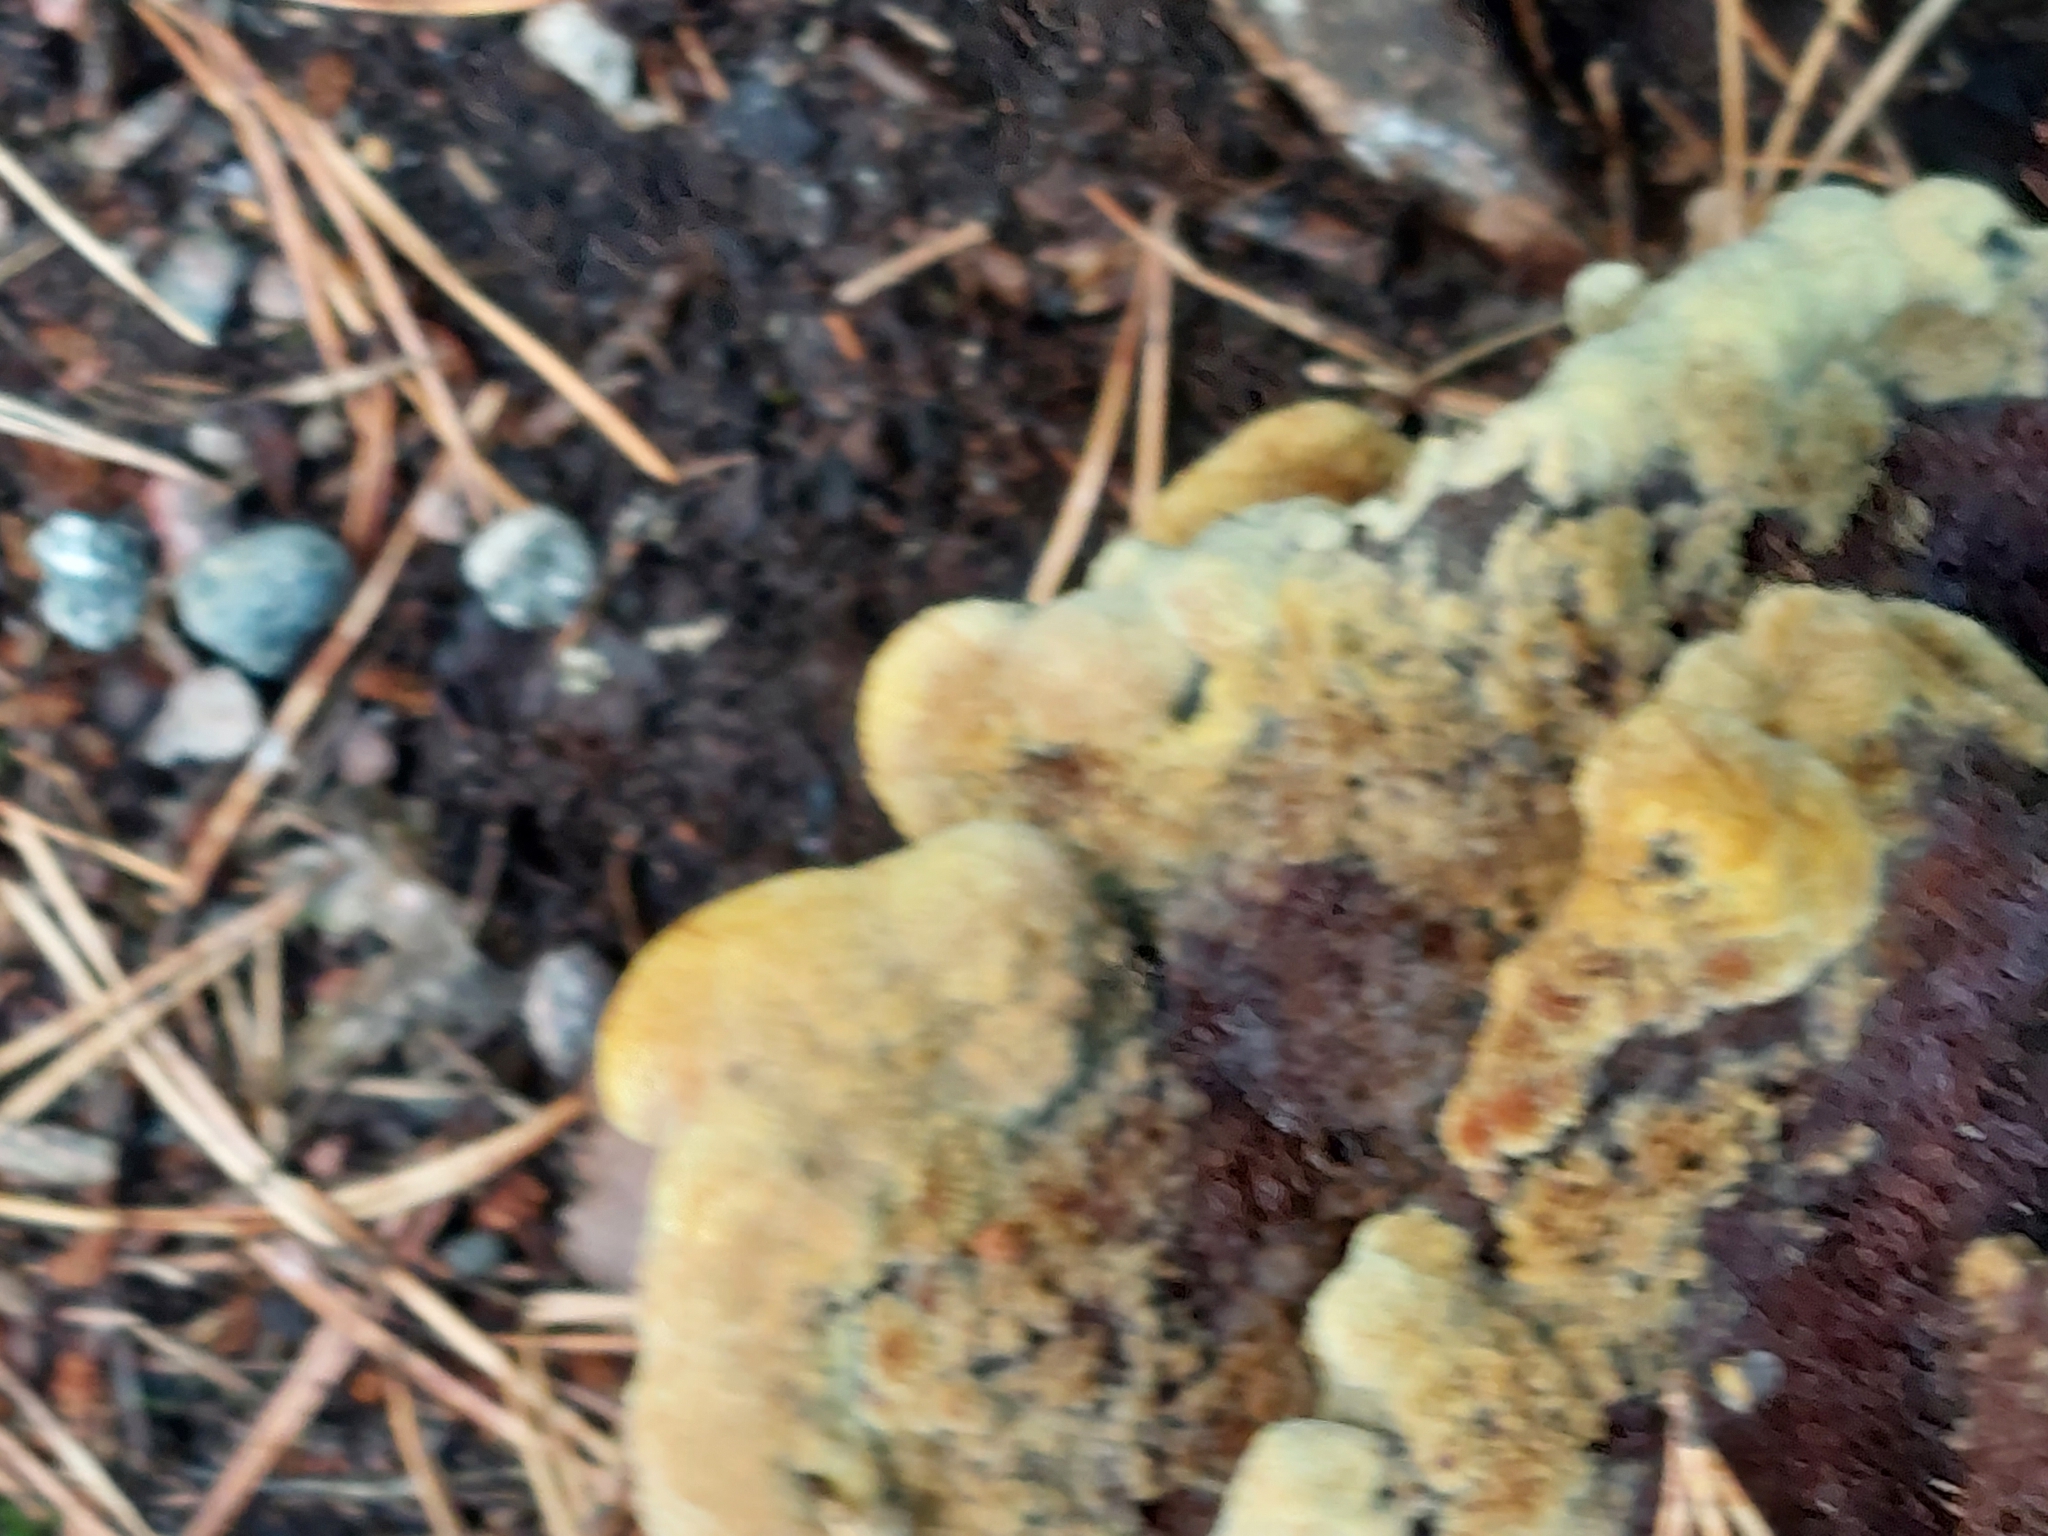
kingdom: Fungi
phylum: Basidiomycota
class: Agaricomycetes
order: Polyporales
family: Laetiporaceae
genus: Phaeolus
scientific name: Phaeolus schweinitzii
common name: Dyer's mazegill
